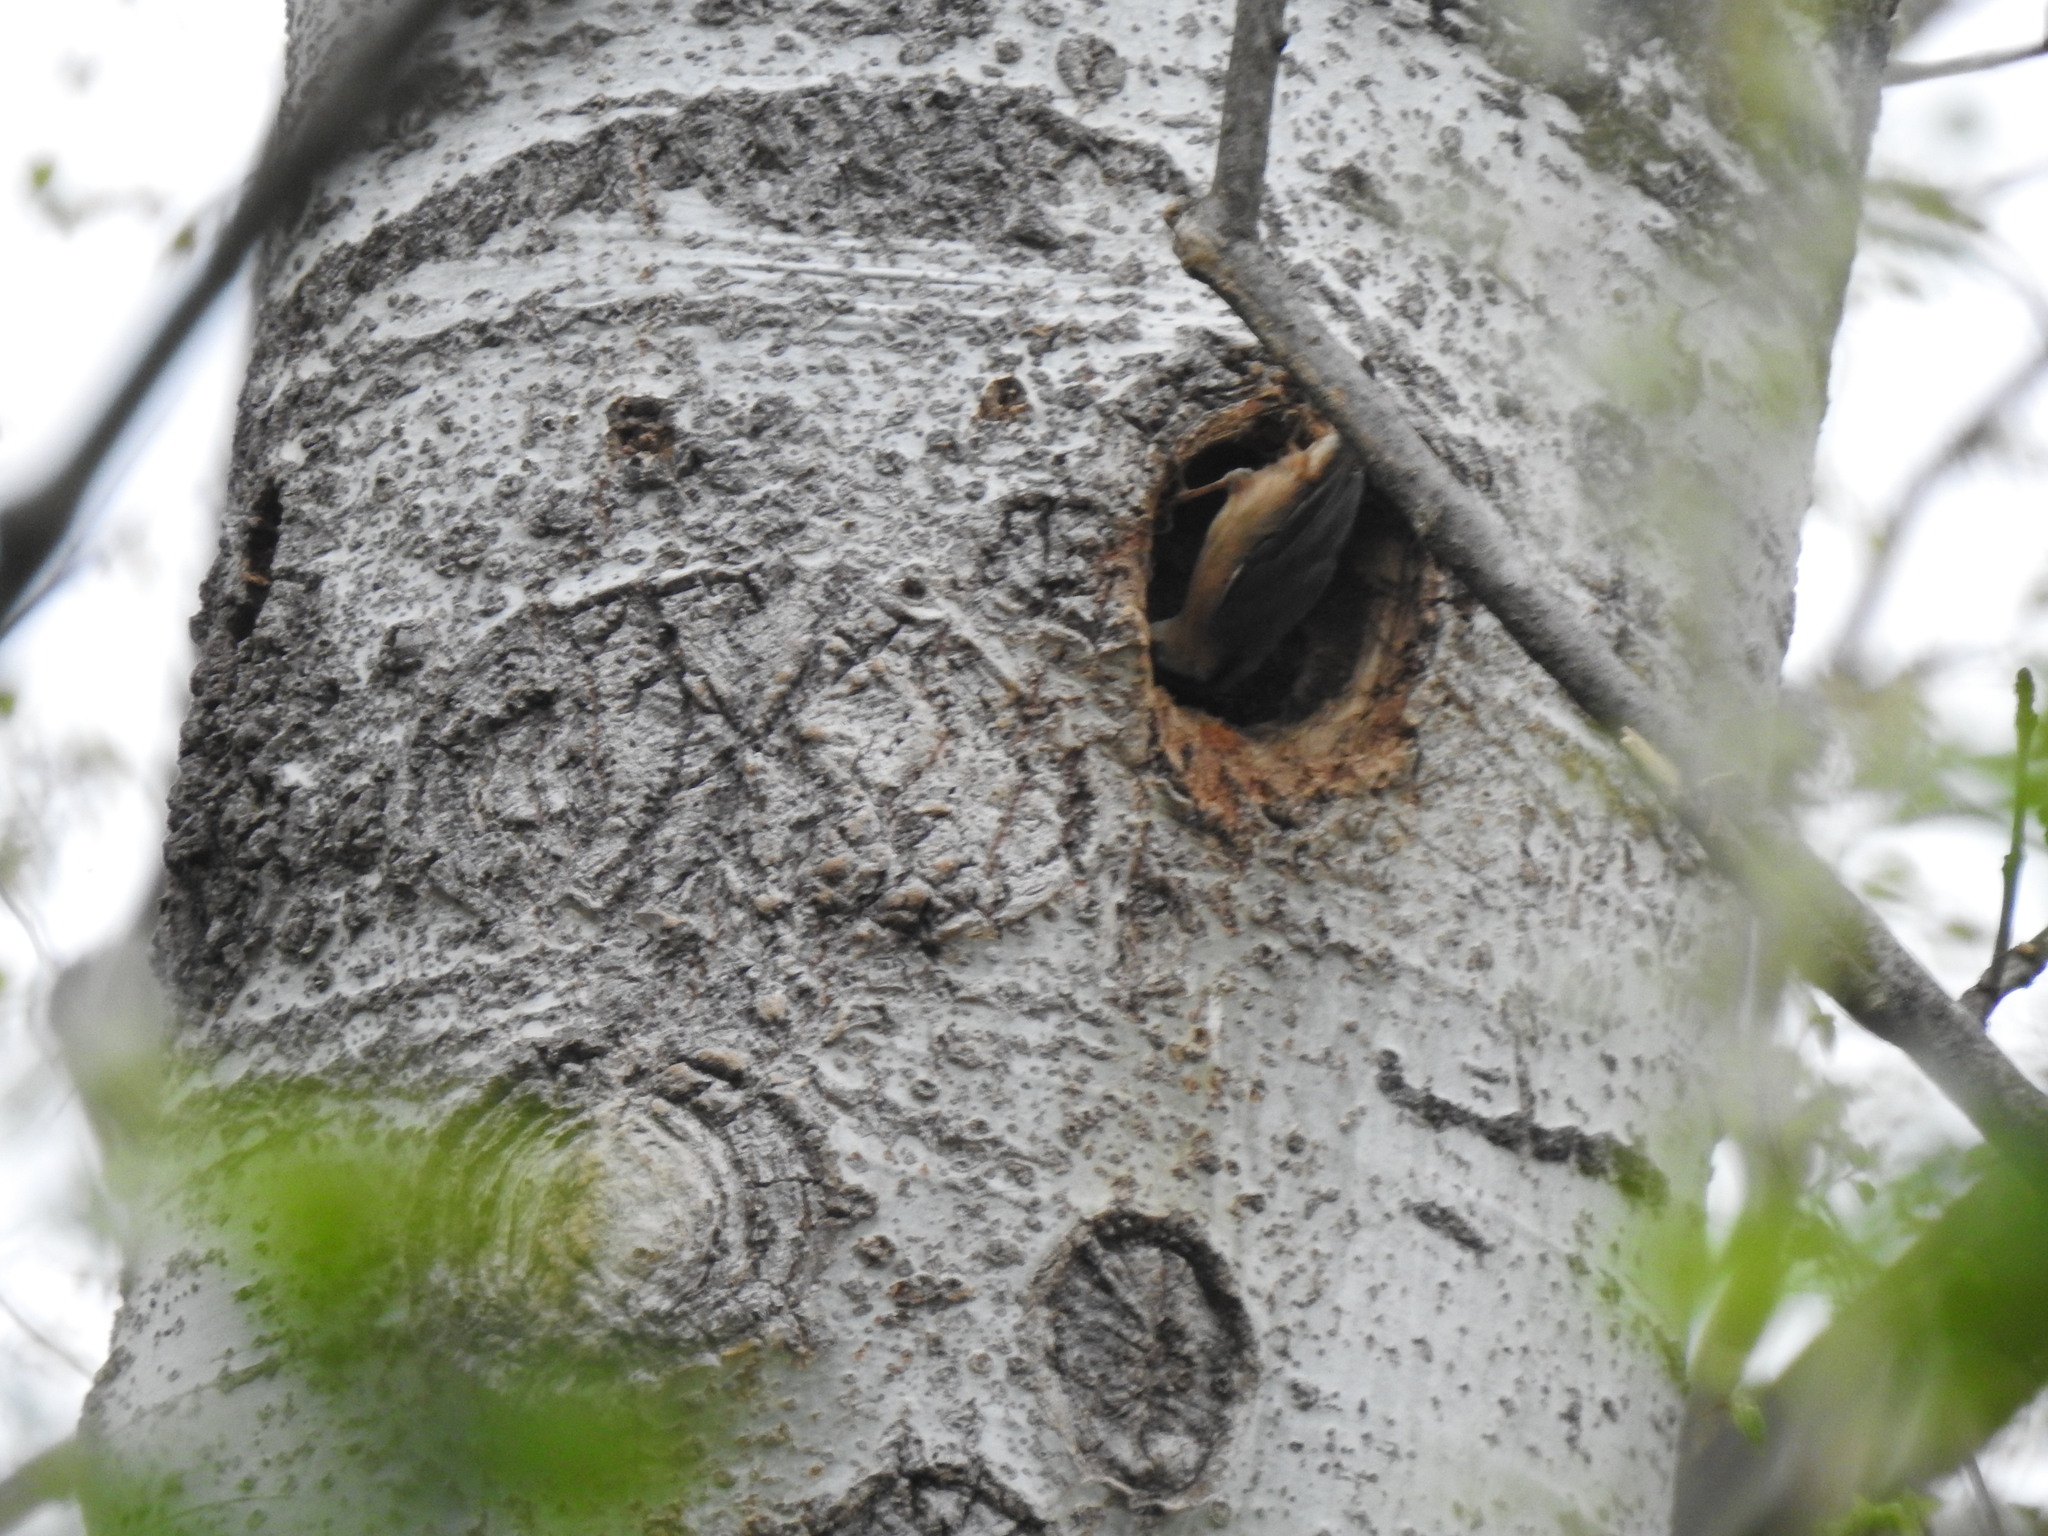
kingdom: Animalia
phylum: Chordata
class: Aves
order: Passeriformes
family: Sittidae
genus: Sitta
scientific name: Sitta europaea
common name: Eurasian nuthatch
